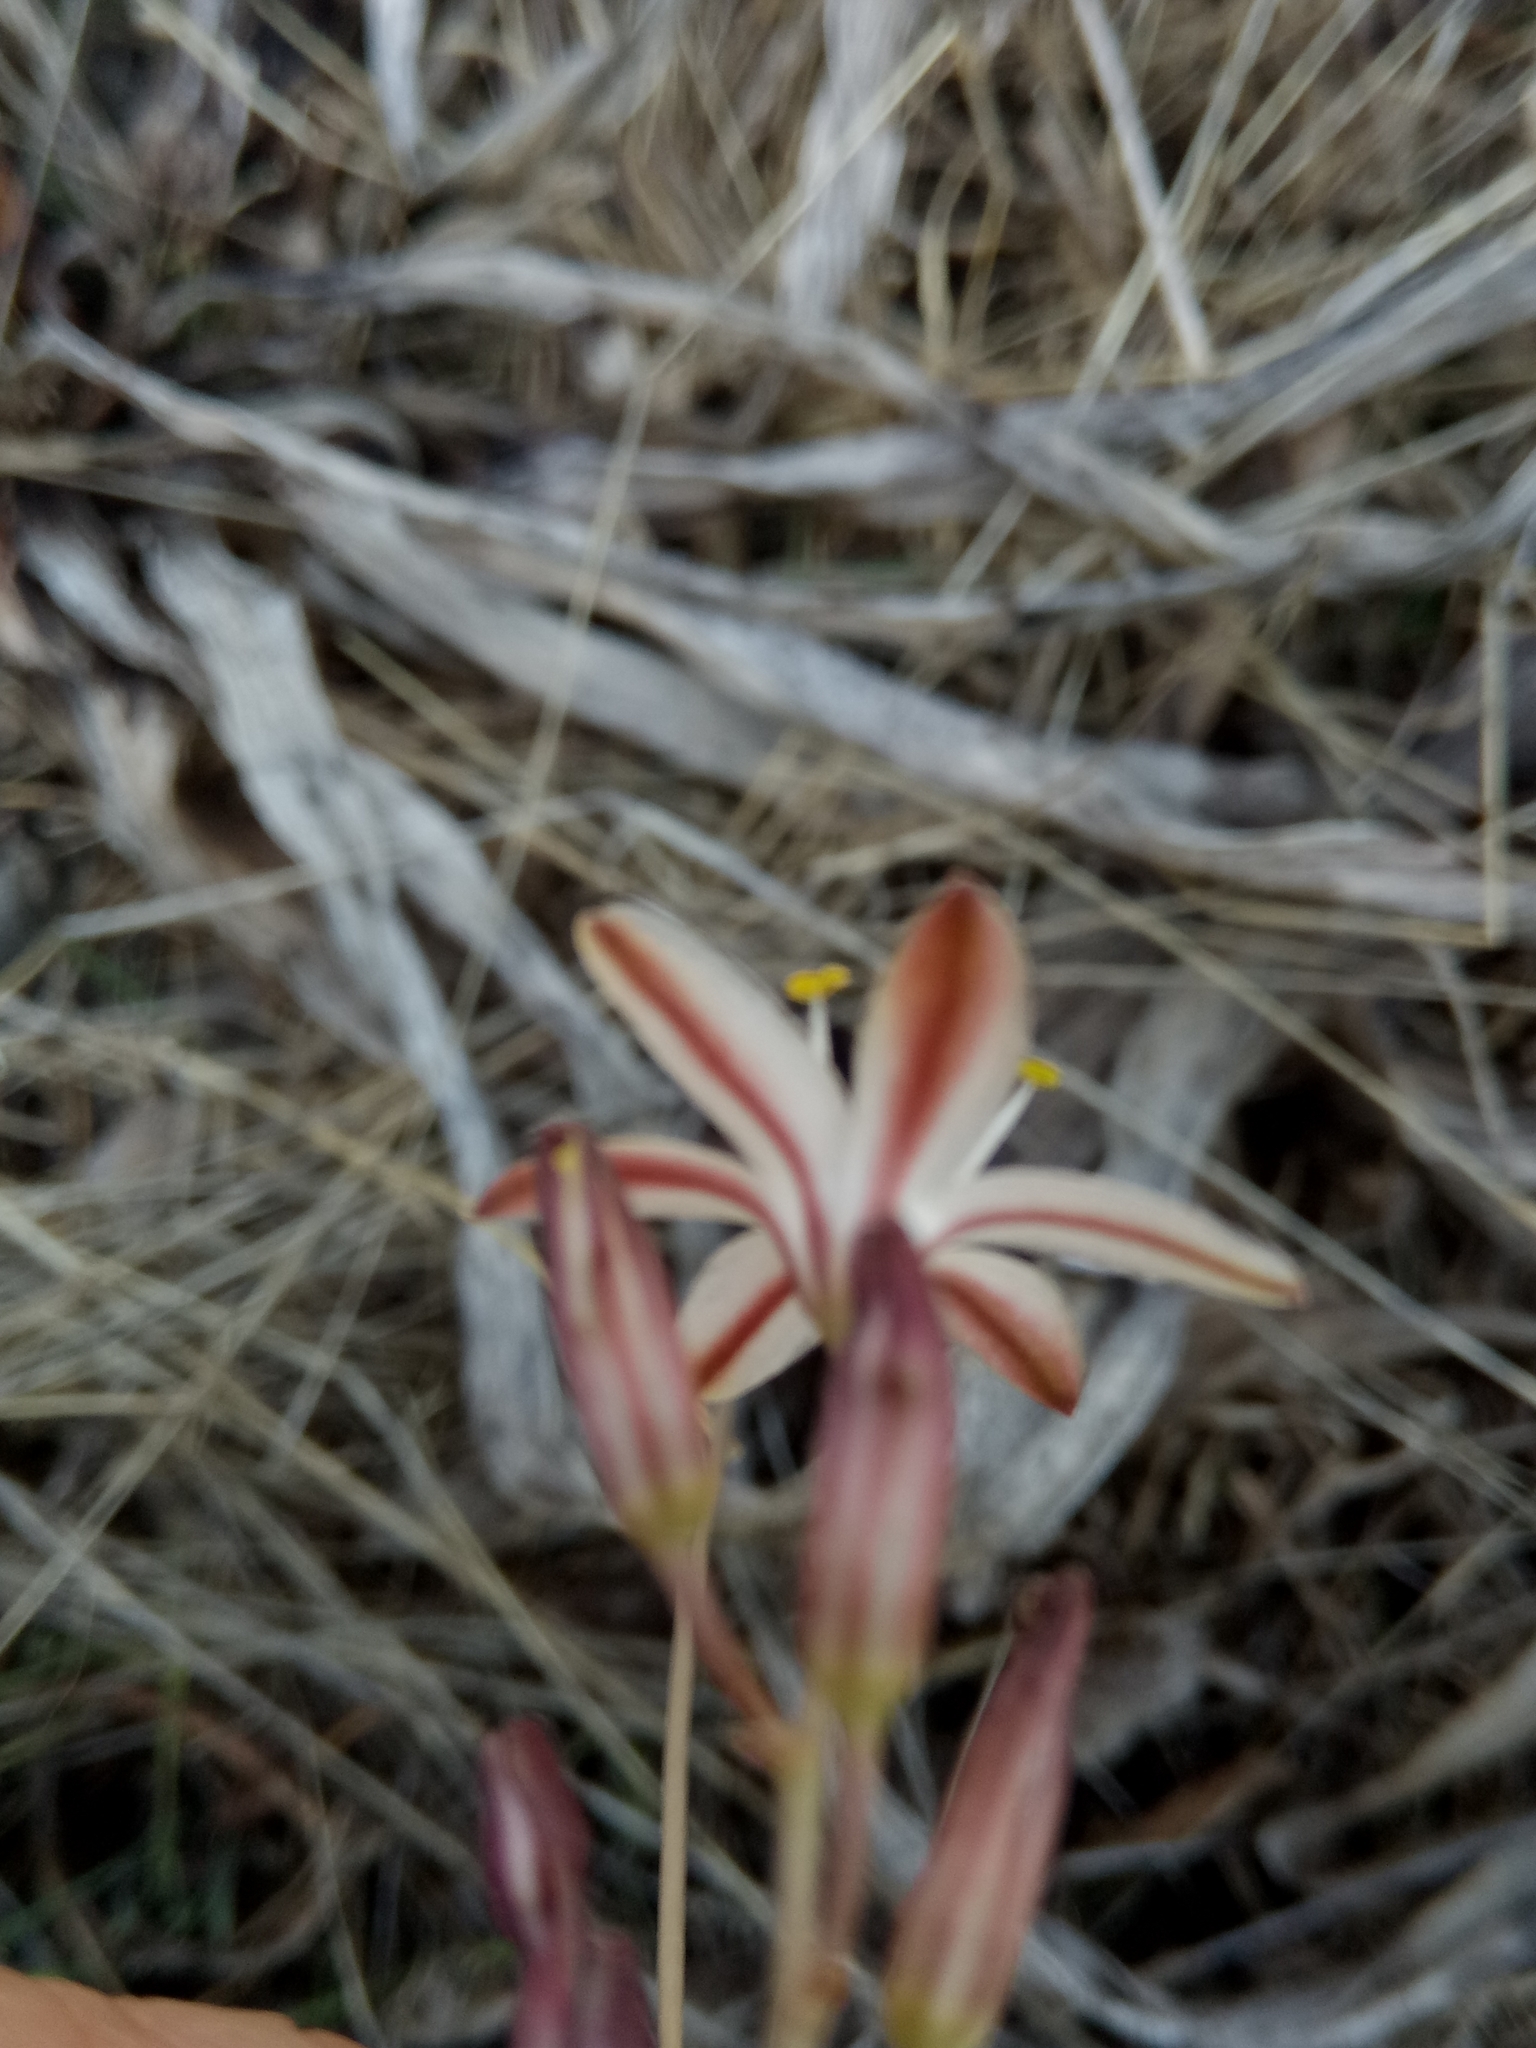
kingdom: Plantae
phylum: Tracheophyta
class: Liliopsida
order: Asparagales
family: Asparagaceae
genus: Drimia
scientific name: Drimia fugax
